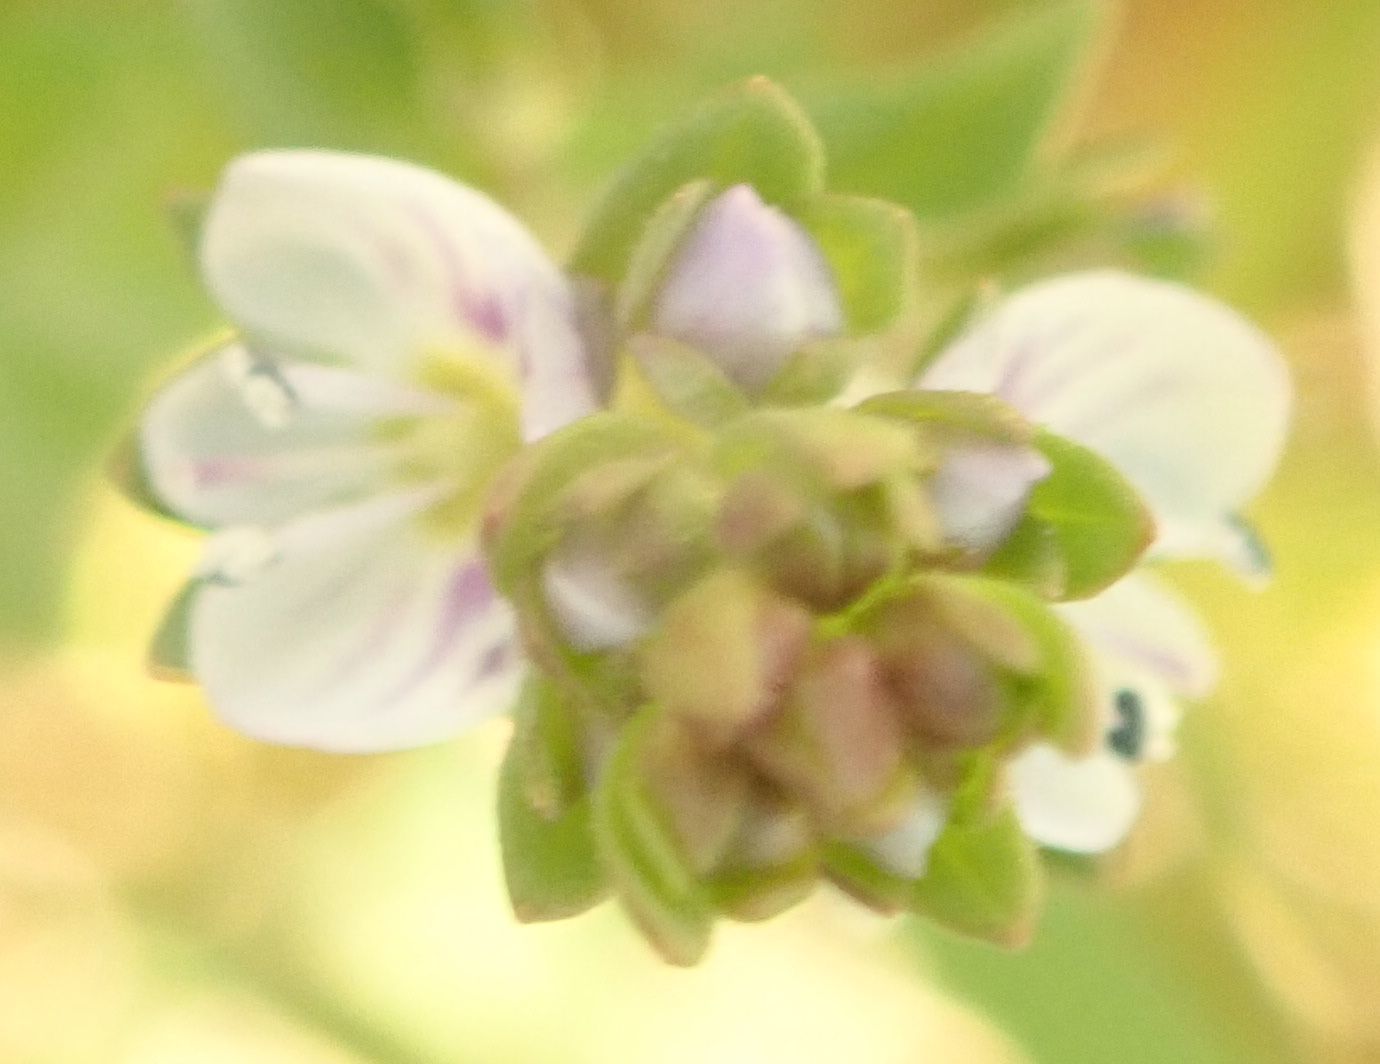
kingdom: Plantae
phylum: Tracheophyta
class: Magnoliopsida
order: Lamiales
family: Plantaginaceae
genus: Veronica
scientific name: Veronica serpyllifolia
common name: Thyme-leaved speedwell
